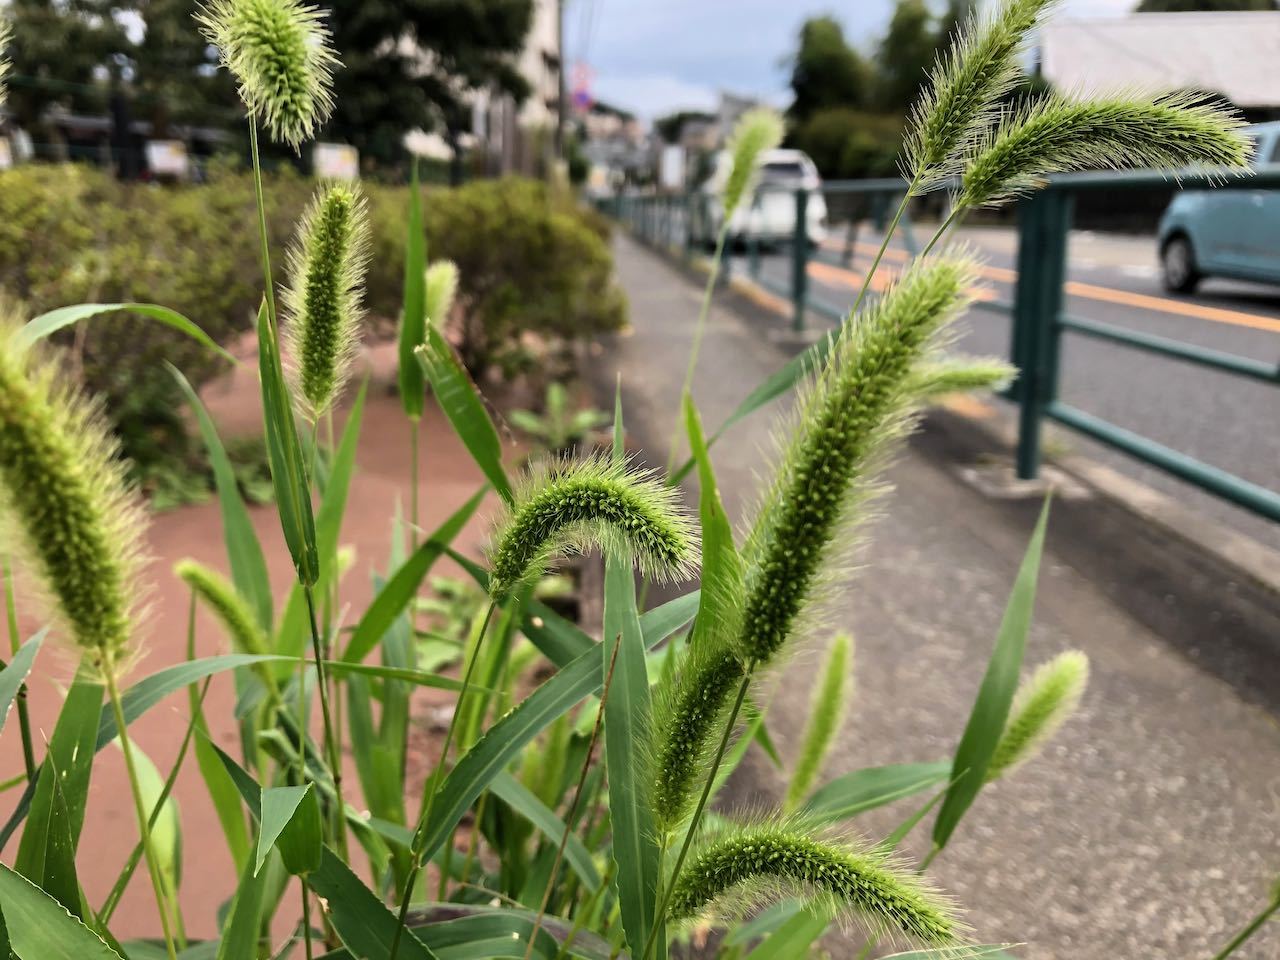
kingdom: Plantae
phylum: Tracheophyta
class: Liliopsida
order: Poales
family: Poaceae
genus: Setaria
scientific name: Setaria viridis
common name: Green bristlegrass
